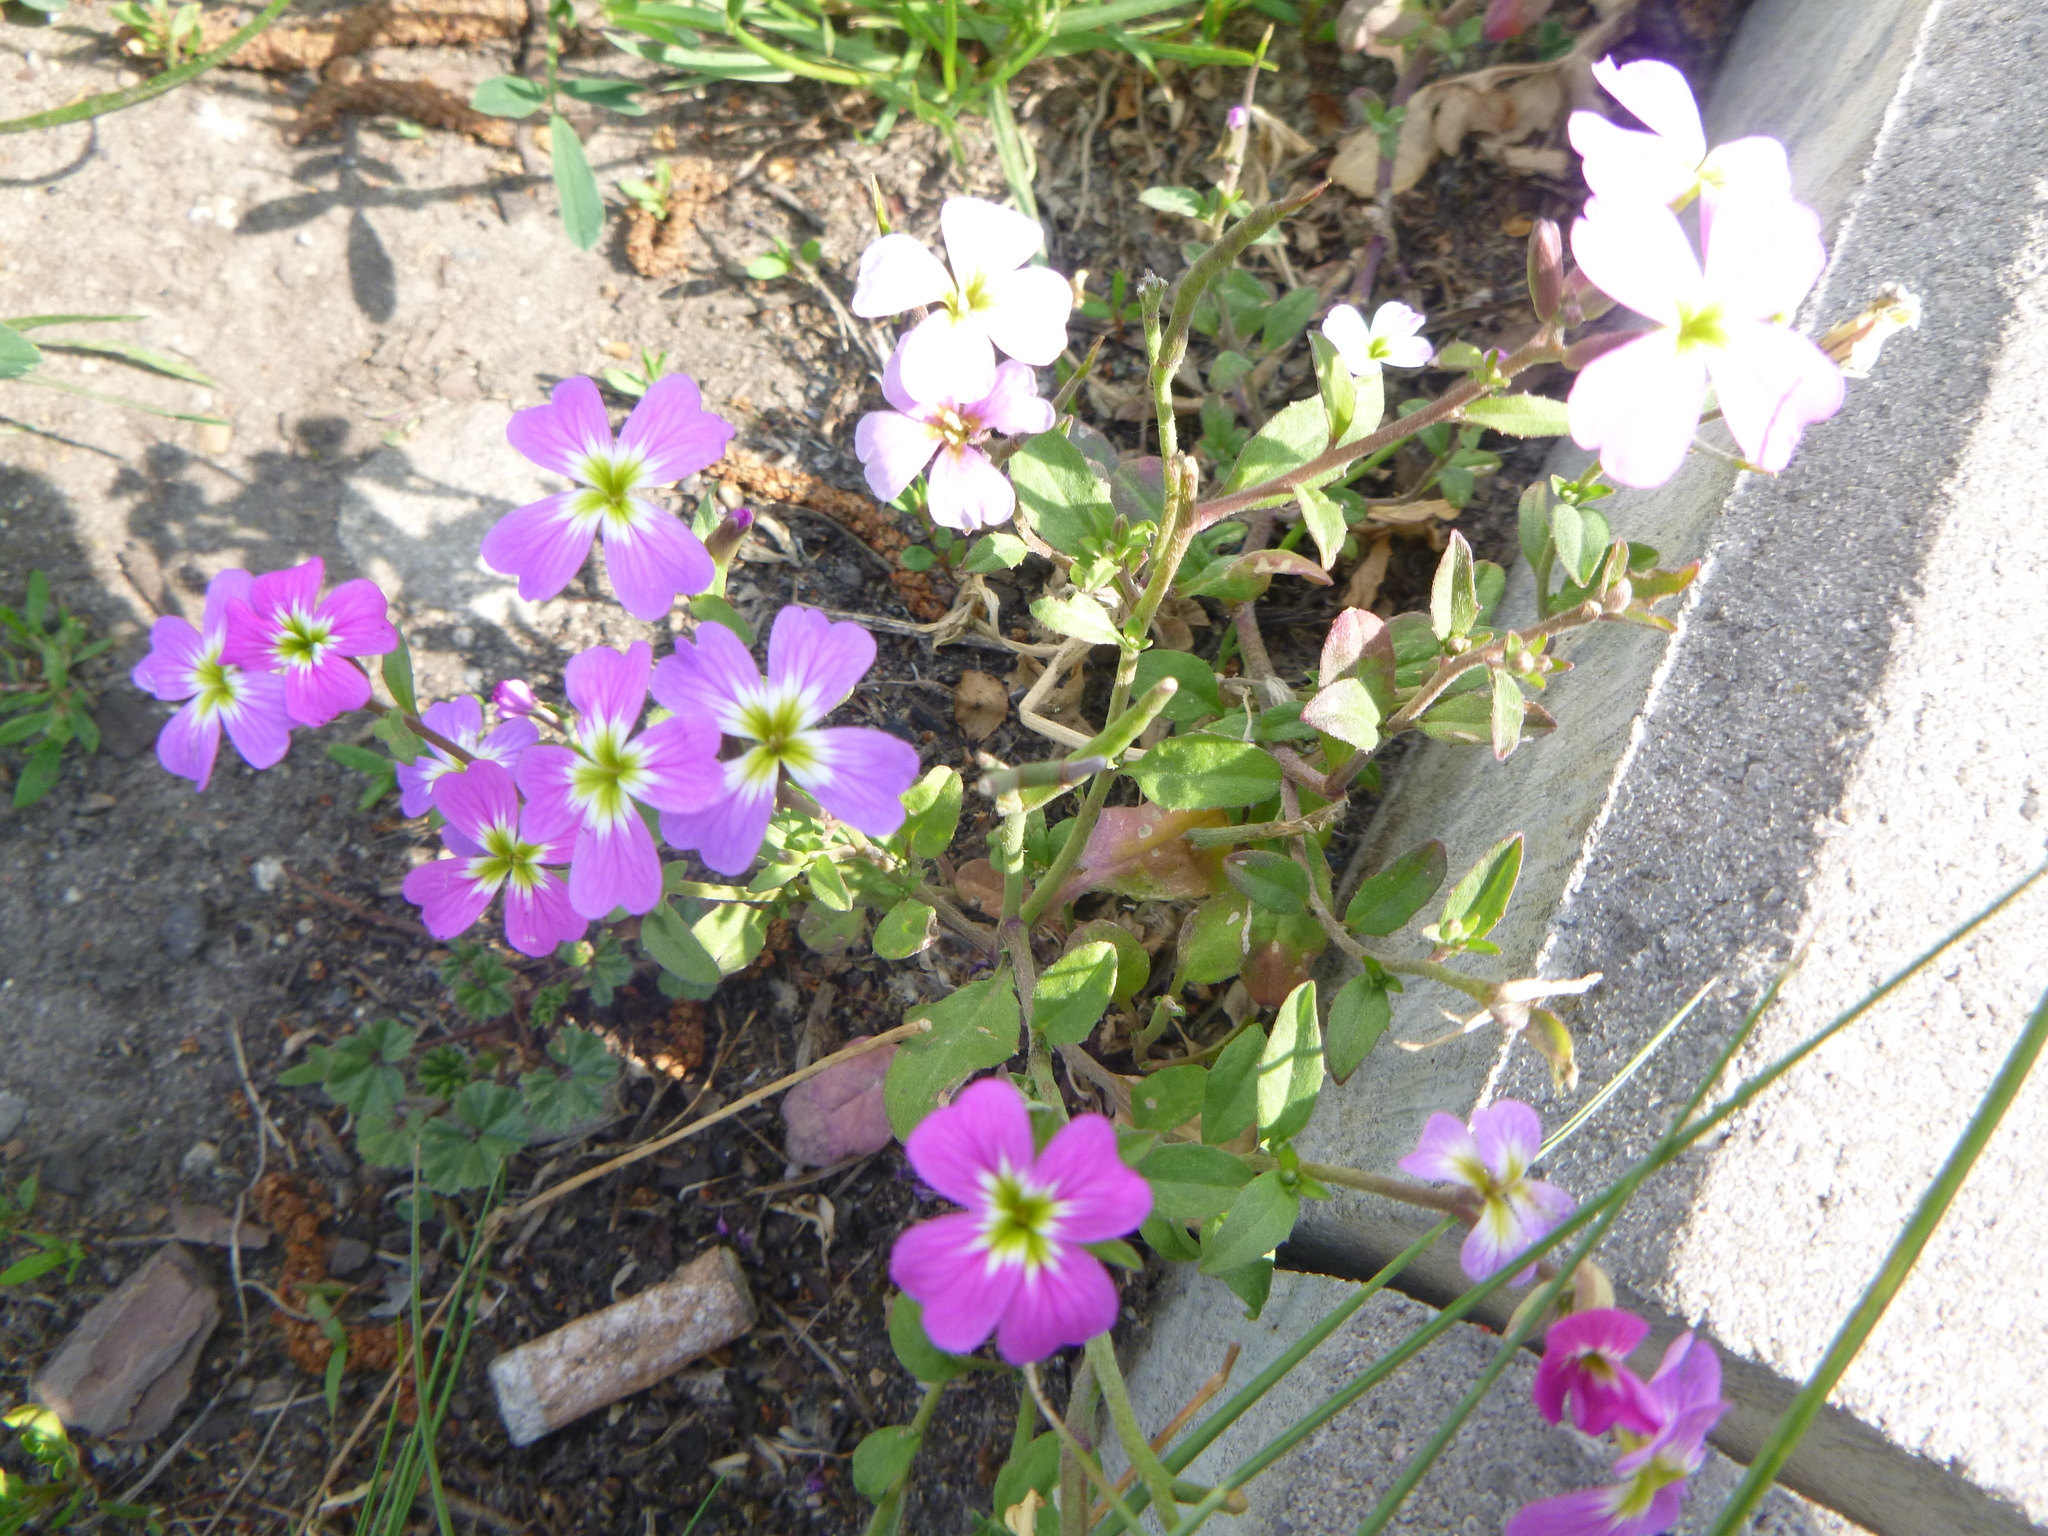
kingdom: Plantae
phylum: Tracheophyta
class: Magnoliopsida
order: Brassicales
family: Brassicaceae
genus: Malcolmia
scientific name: Malcolmia maritima
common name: Virginia stock
